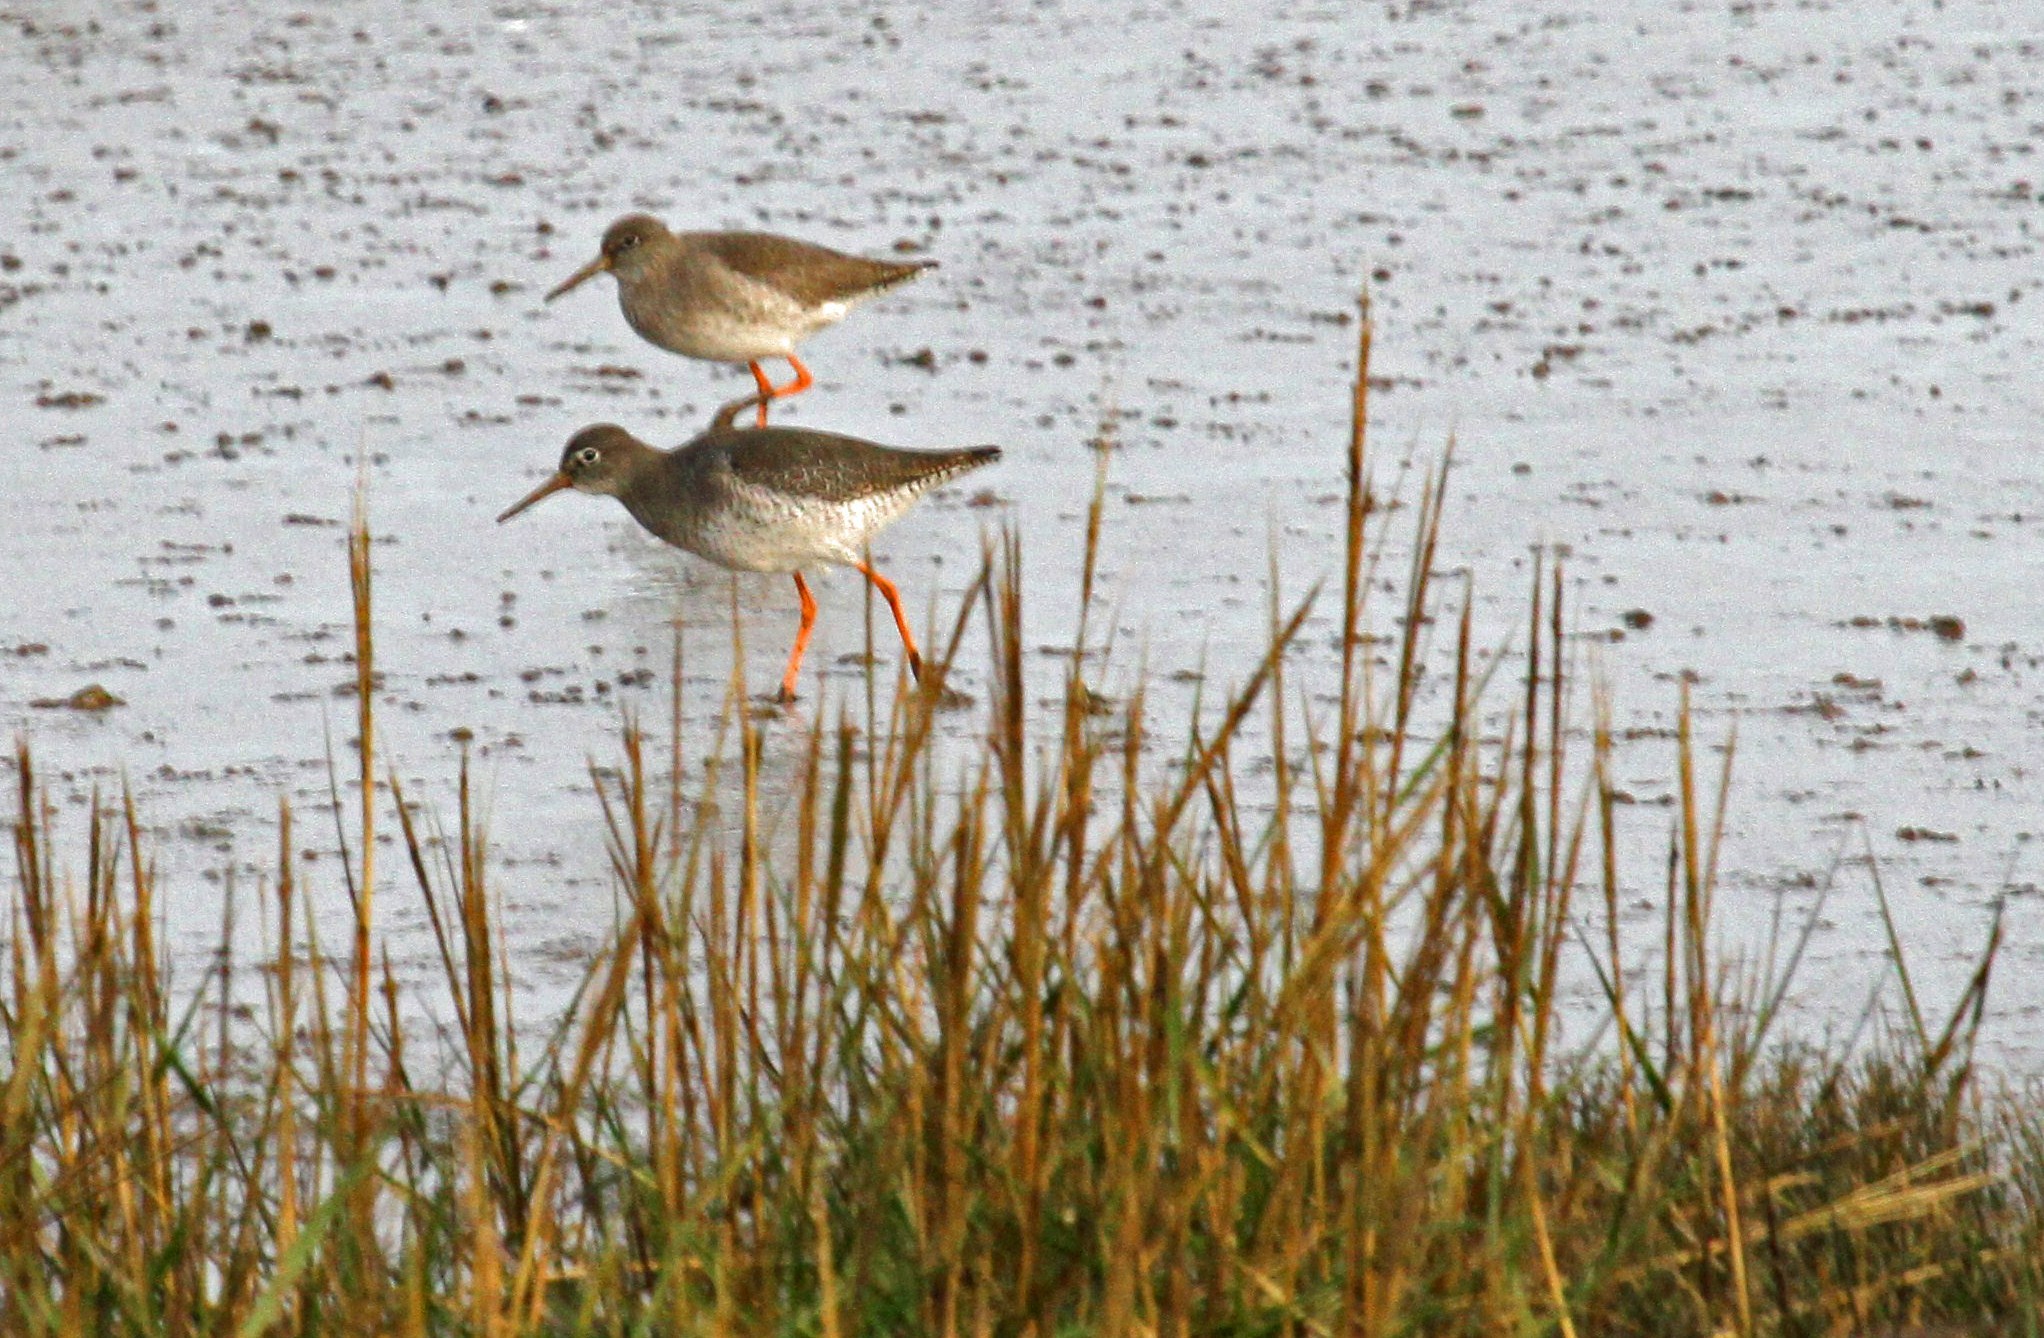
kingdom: Animalia
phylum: Chordata
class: Aves
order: Charadriiformes
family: Scolopacidae
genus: Tringa
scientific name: Tringa totanus
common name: Common redshank
